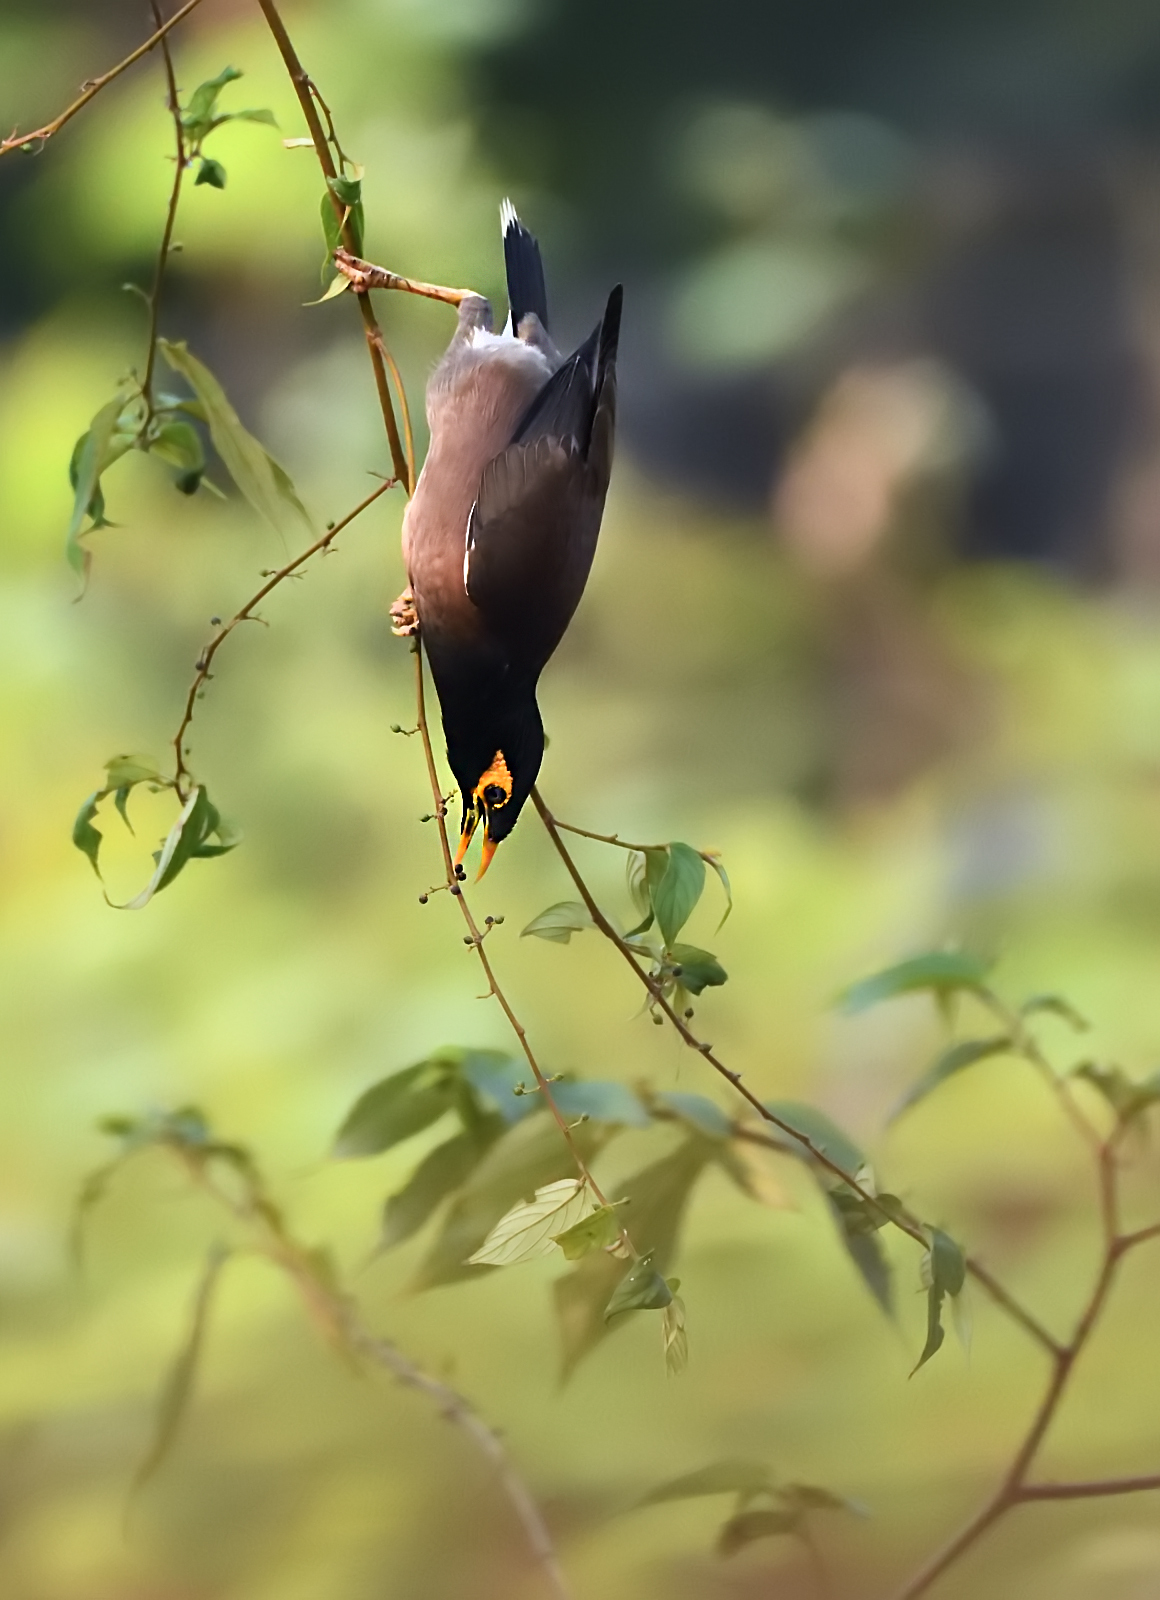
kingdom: Animalia
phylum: Chordata
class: Aves
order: Passeriformes
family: Sturnidae
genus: Acridotheres
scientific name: Acridotheres tristis
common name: Common myna
